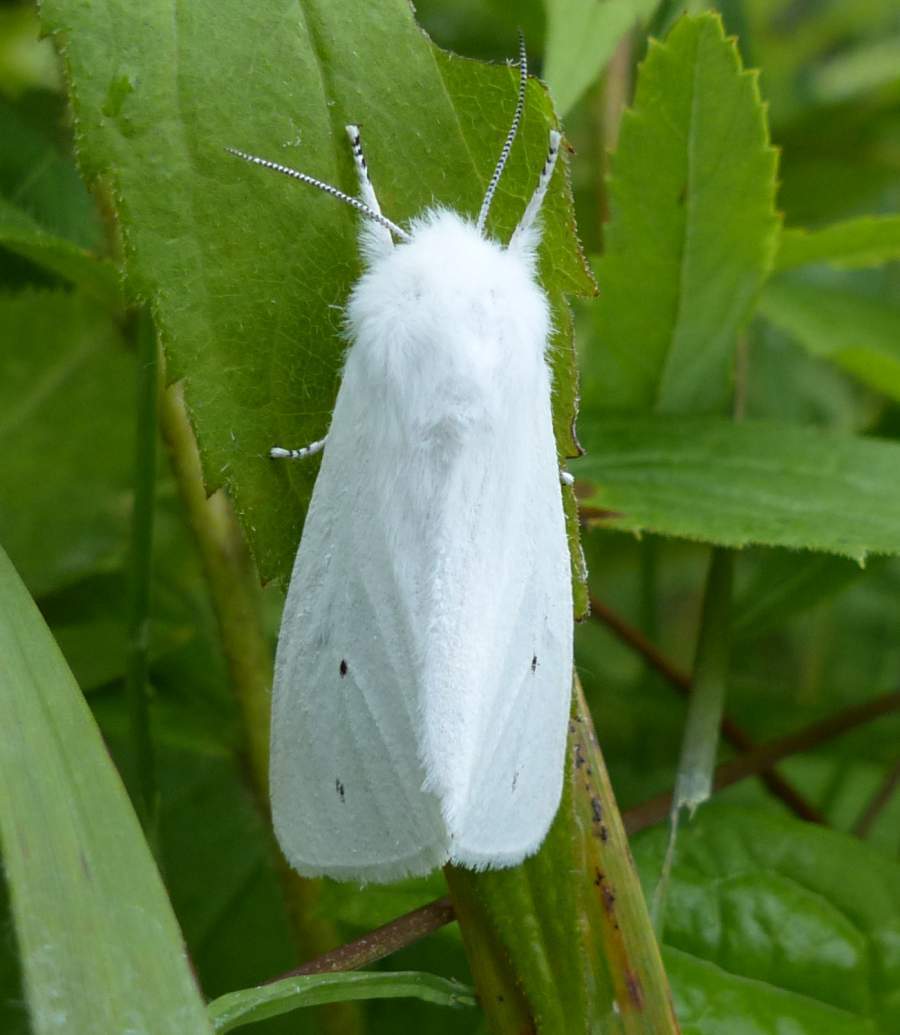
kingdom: Animalia
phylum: Arthropoda
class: Insecta
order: Lepidoptera
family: Erebidae
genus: Spilosoma
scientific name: Spilosoma virginica
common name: Virginia tiger moth
